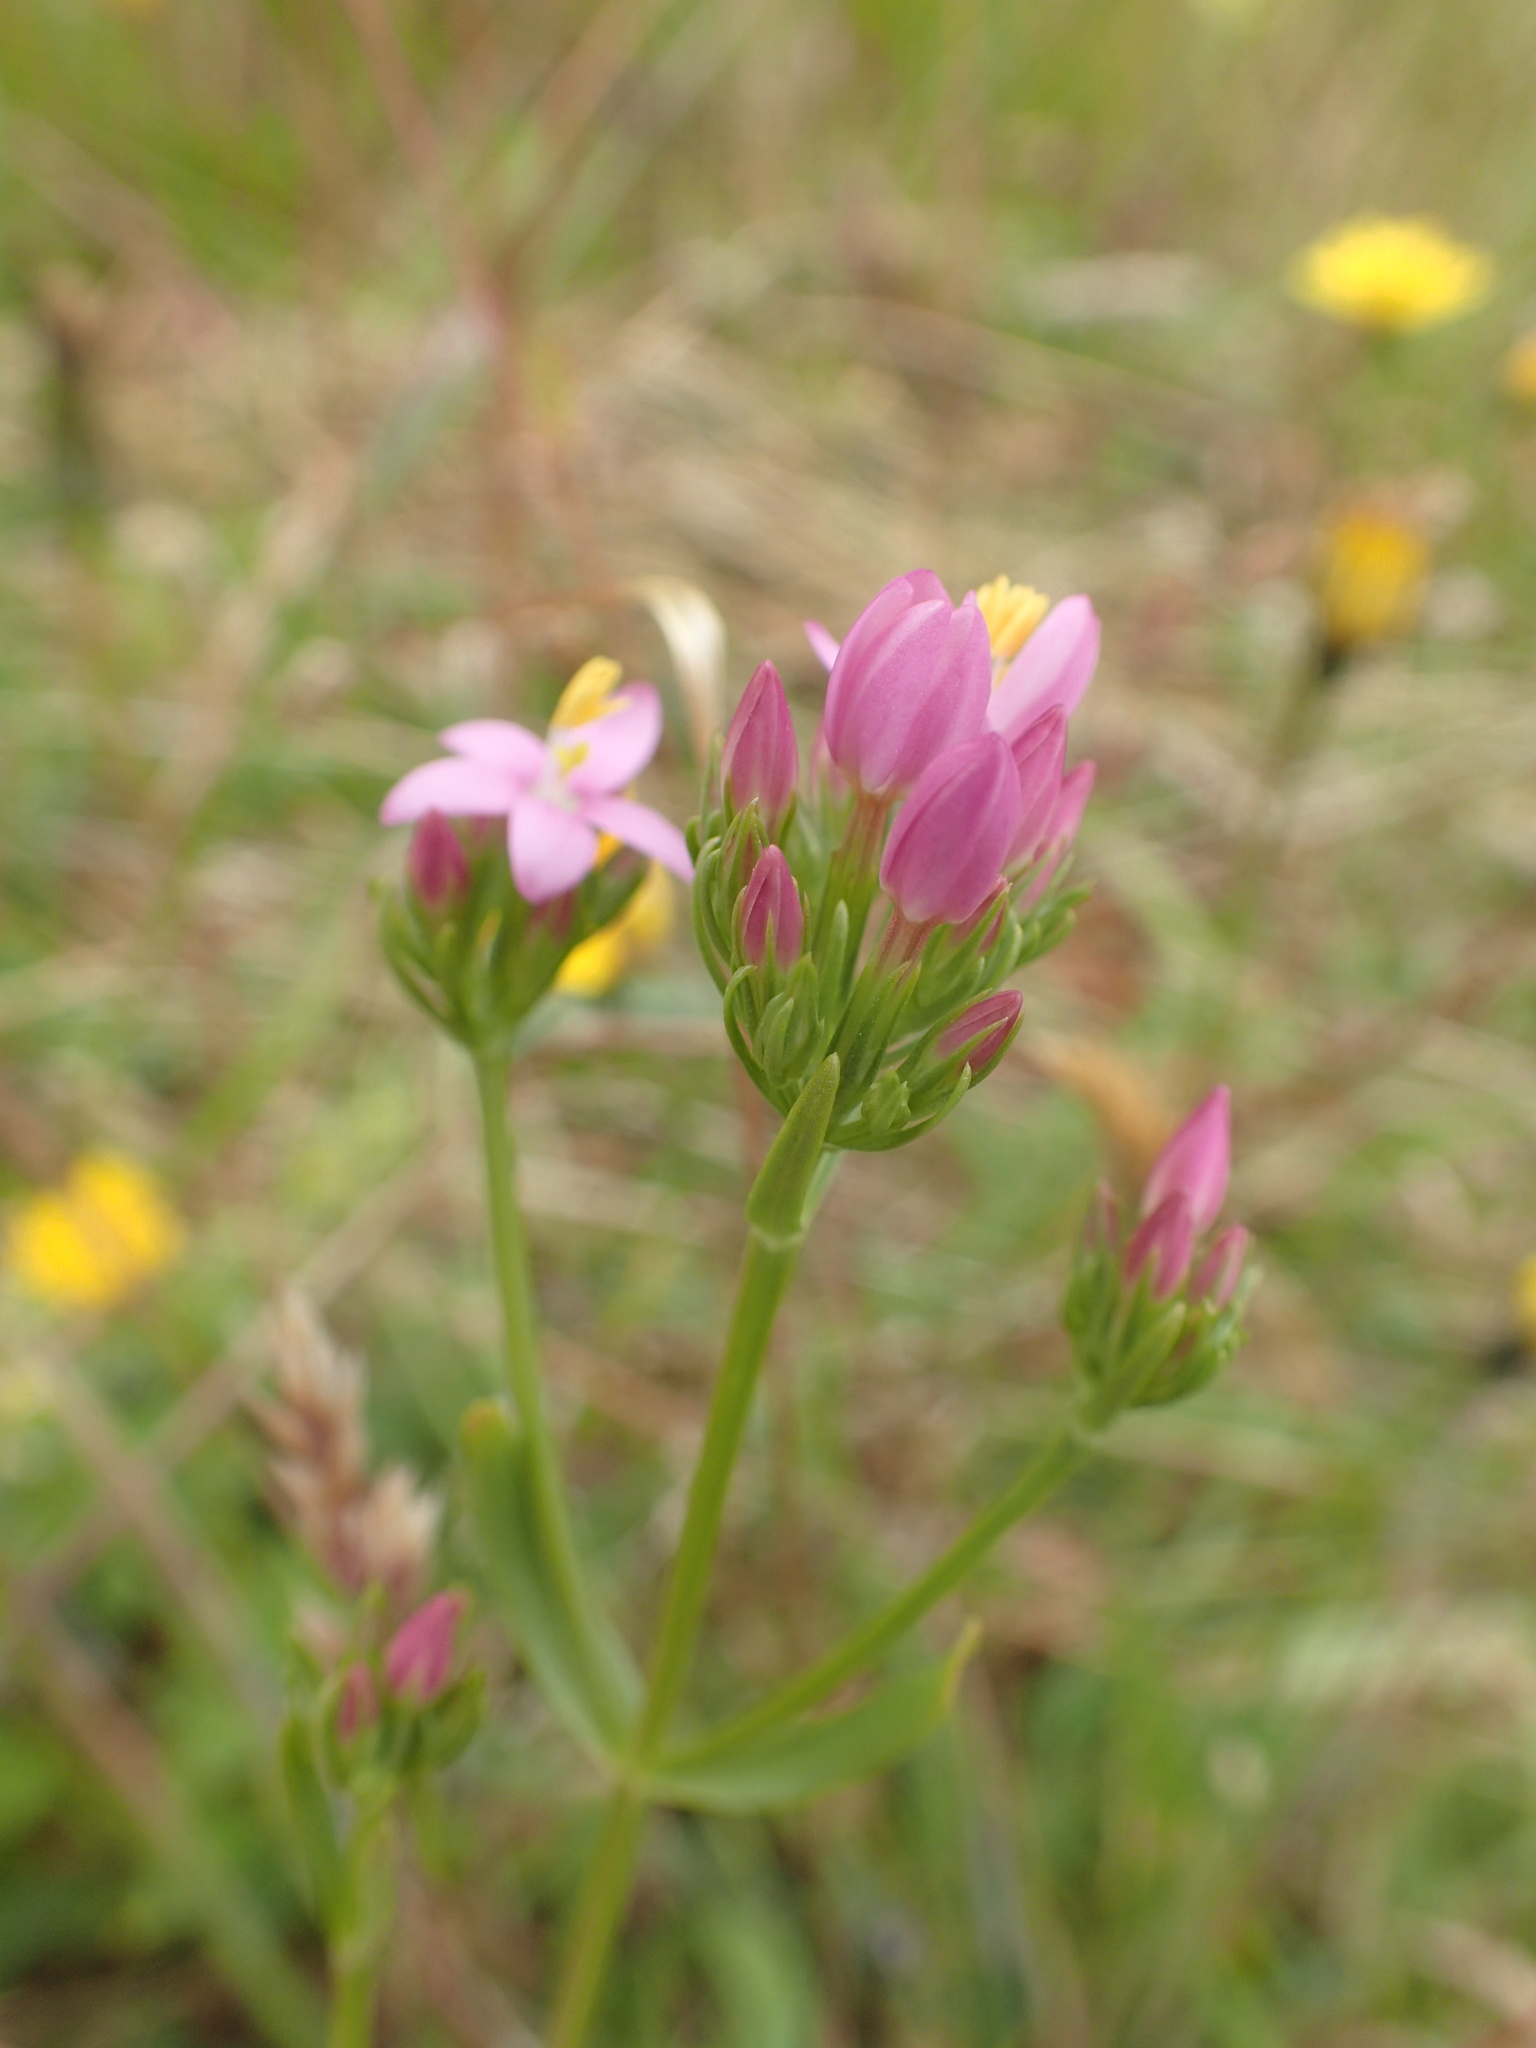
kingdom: Plantae
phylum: Tracheophyta
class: Magnoliopsida
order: Gentianales
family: Gentianaceae
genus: Centaurium
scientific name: Centaurium erythraea
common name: Common centaury
